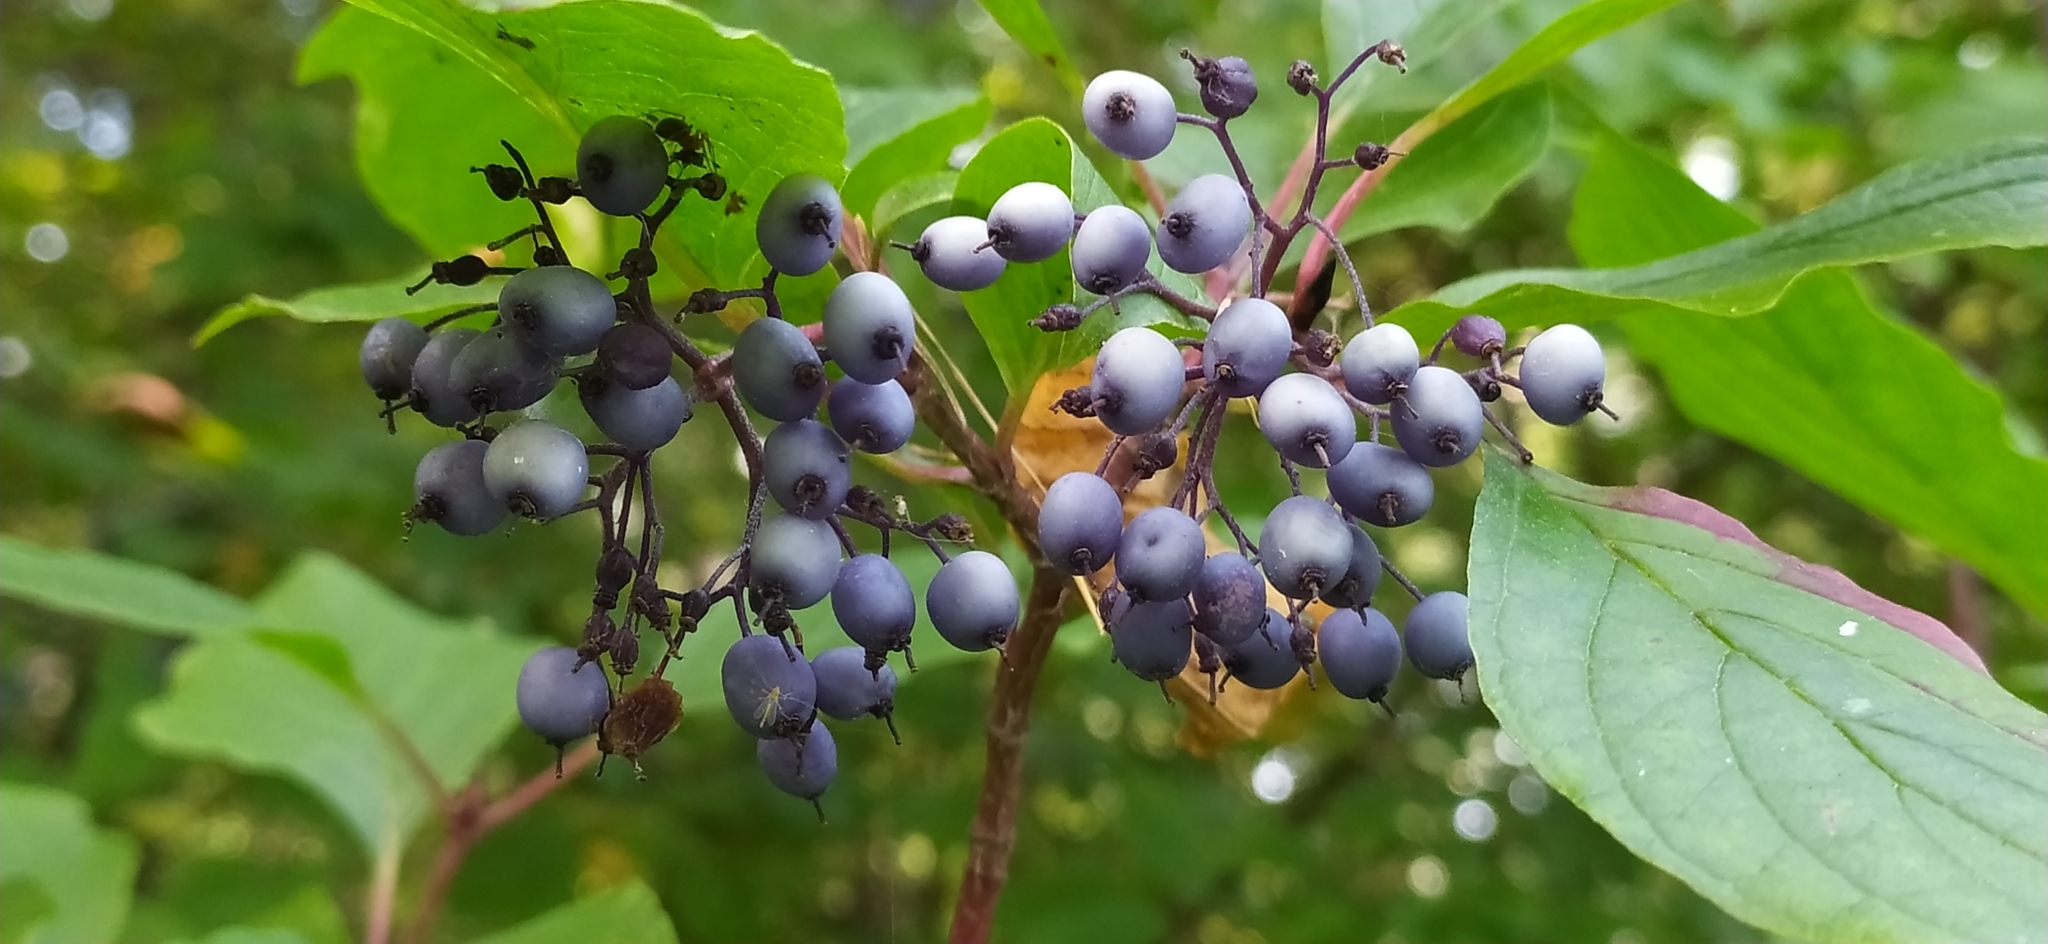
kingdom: Plantae
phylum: Tracheophyta
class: Magnoliopsida
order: Cornales
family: Cornaceae
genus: Cornus
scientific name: Cornus alba
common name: White dogwood
